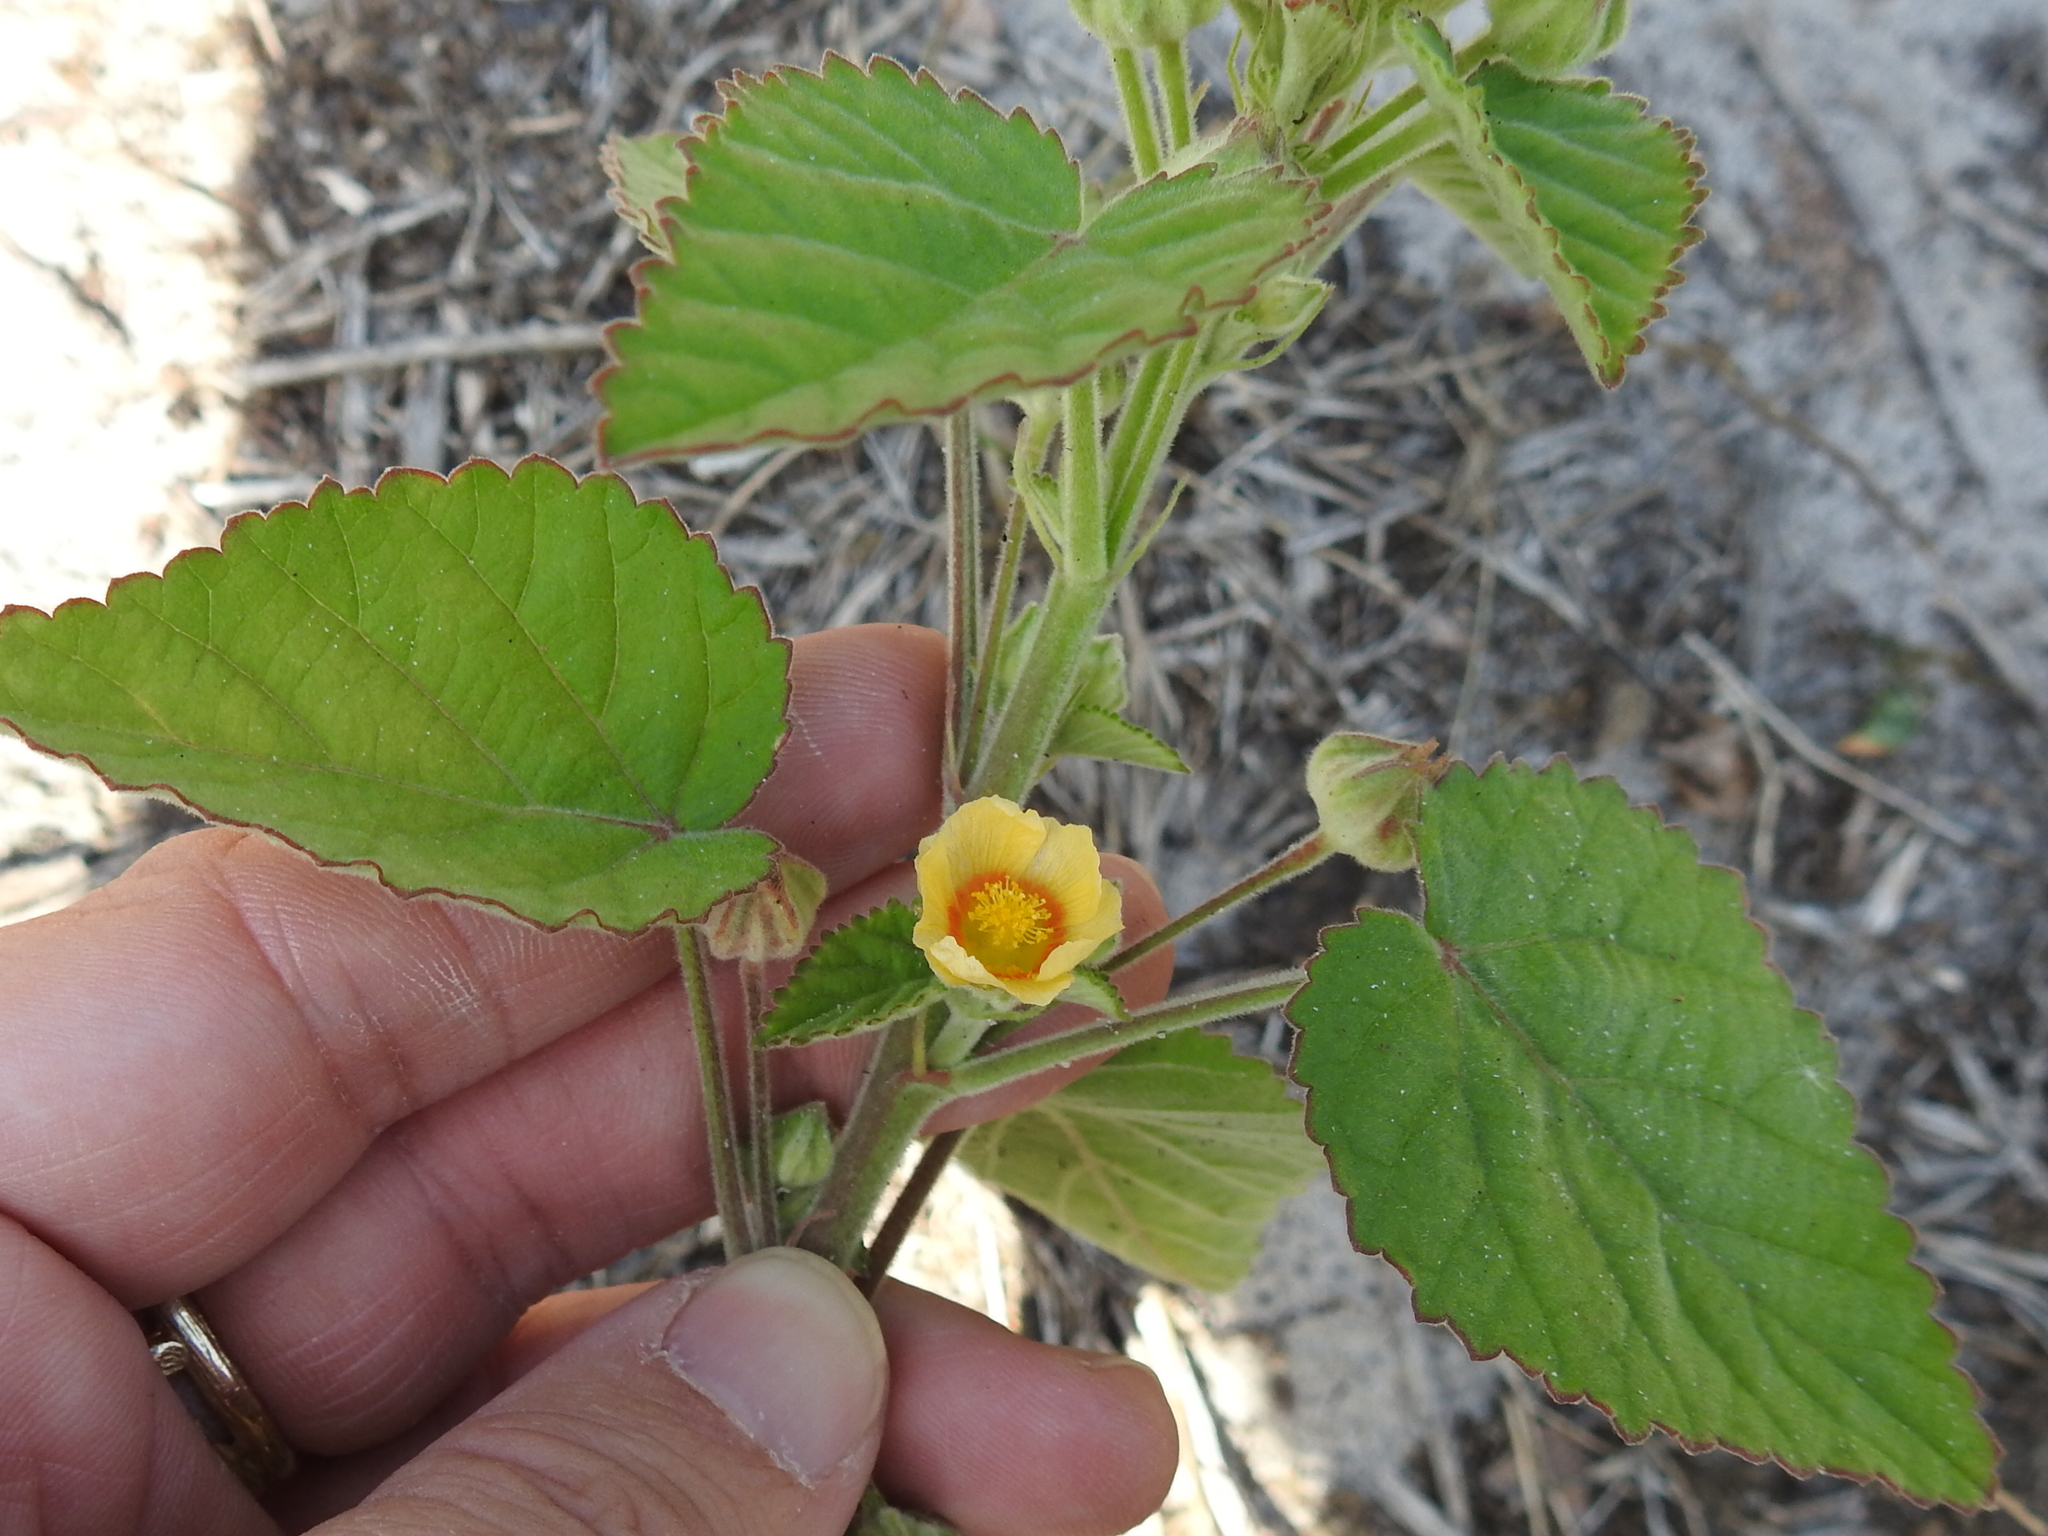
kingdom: Plantae
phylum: Tracheophyta
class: Magnoliopsida
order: Malvales
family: Malvaceae
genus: Sida
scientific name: Sida cordifolia
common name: Ilima
